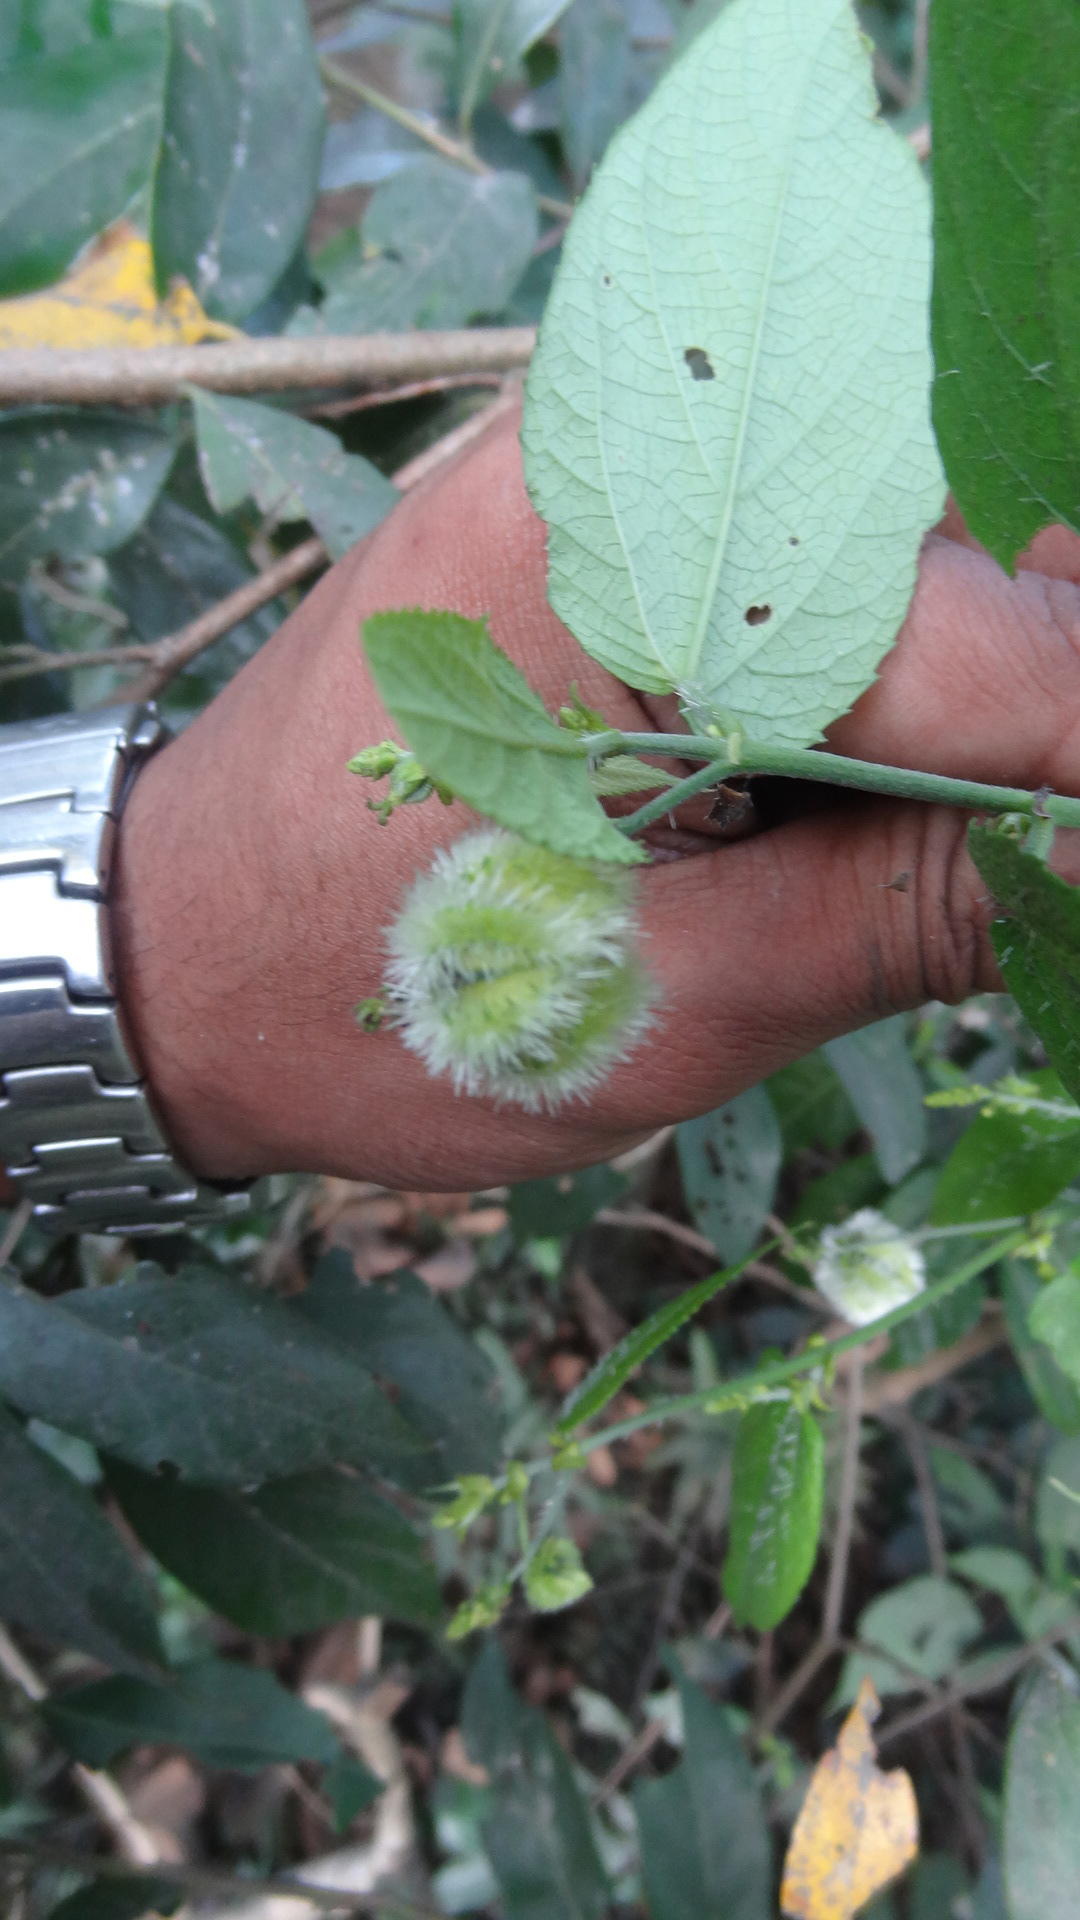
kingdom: Plantae
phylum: Tracheophyta
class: Magnoliopsida
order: Malpighiales
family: Euphorbiaceae
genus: Tragia
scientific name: Tragia involucrata
